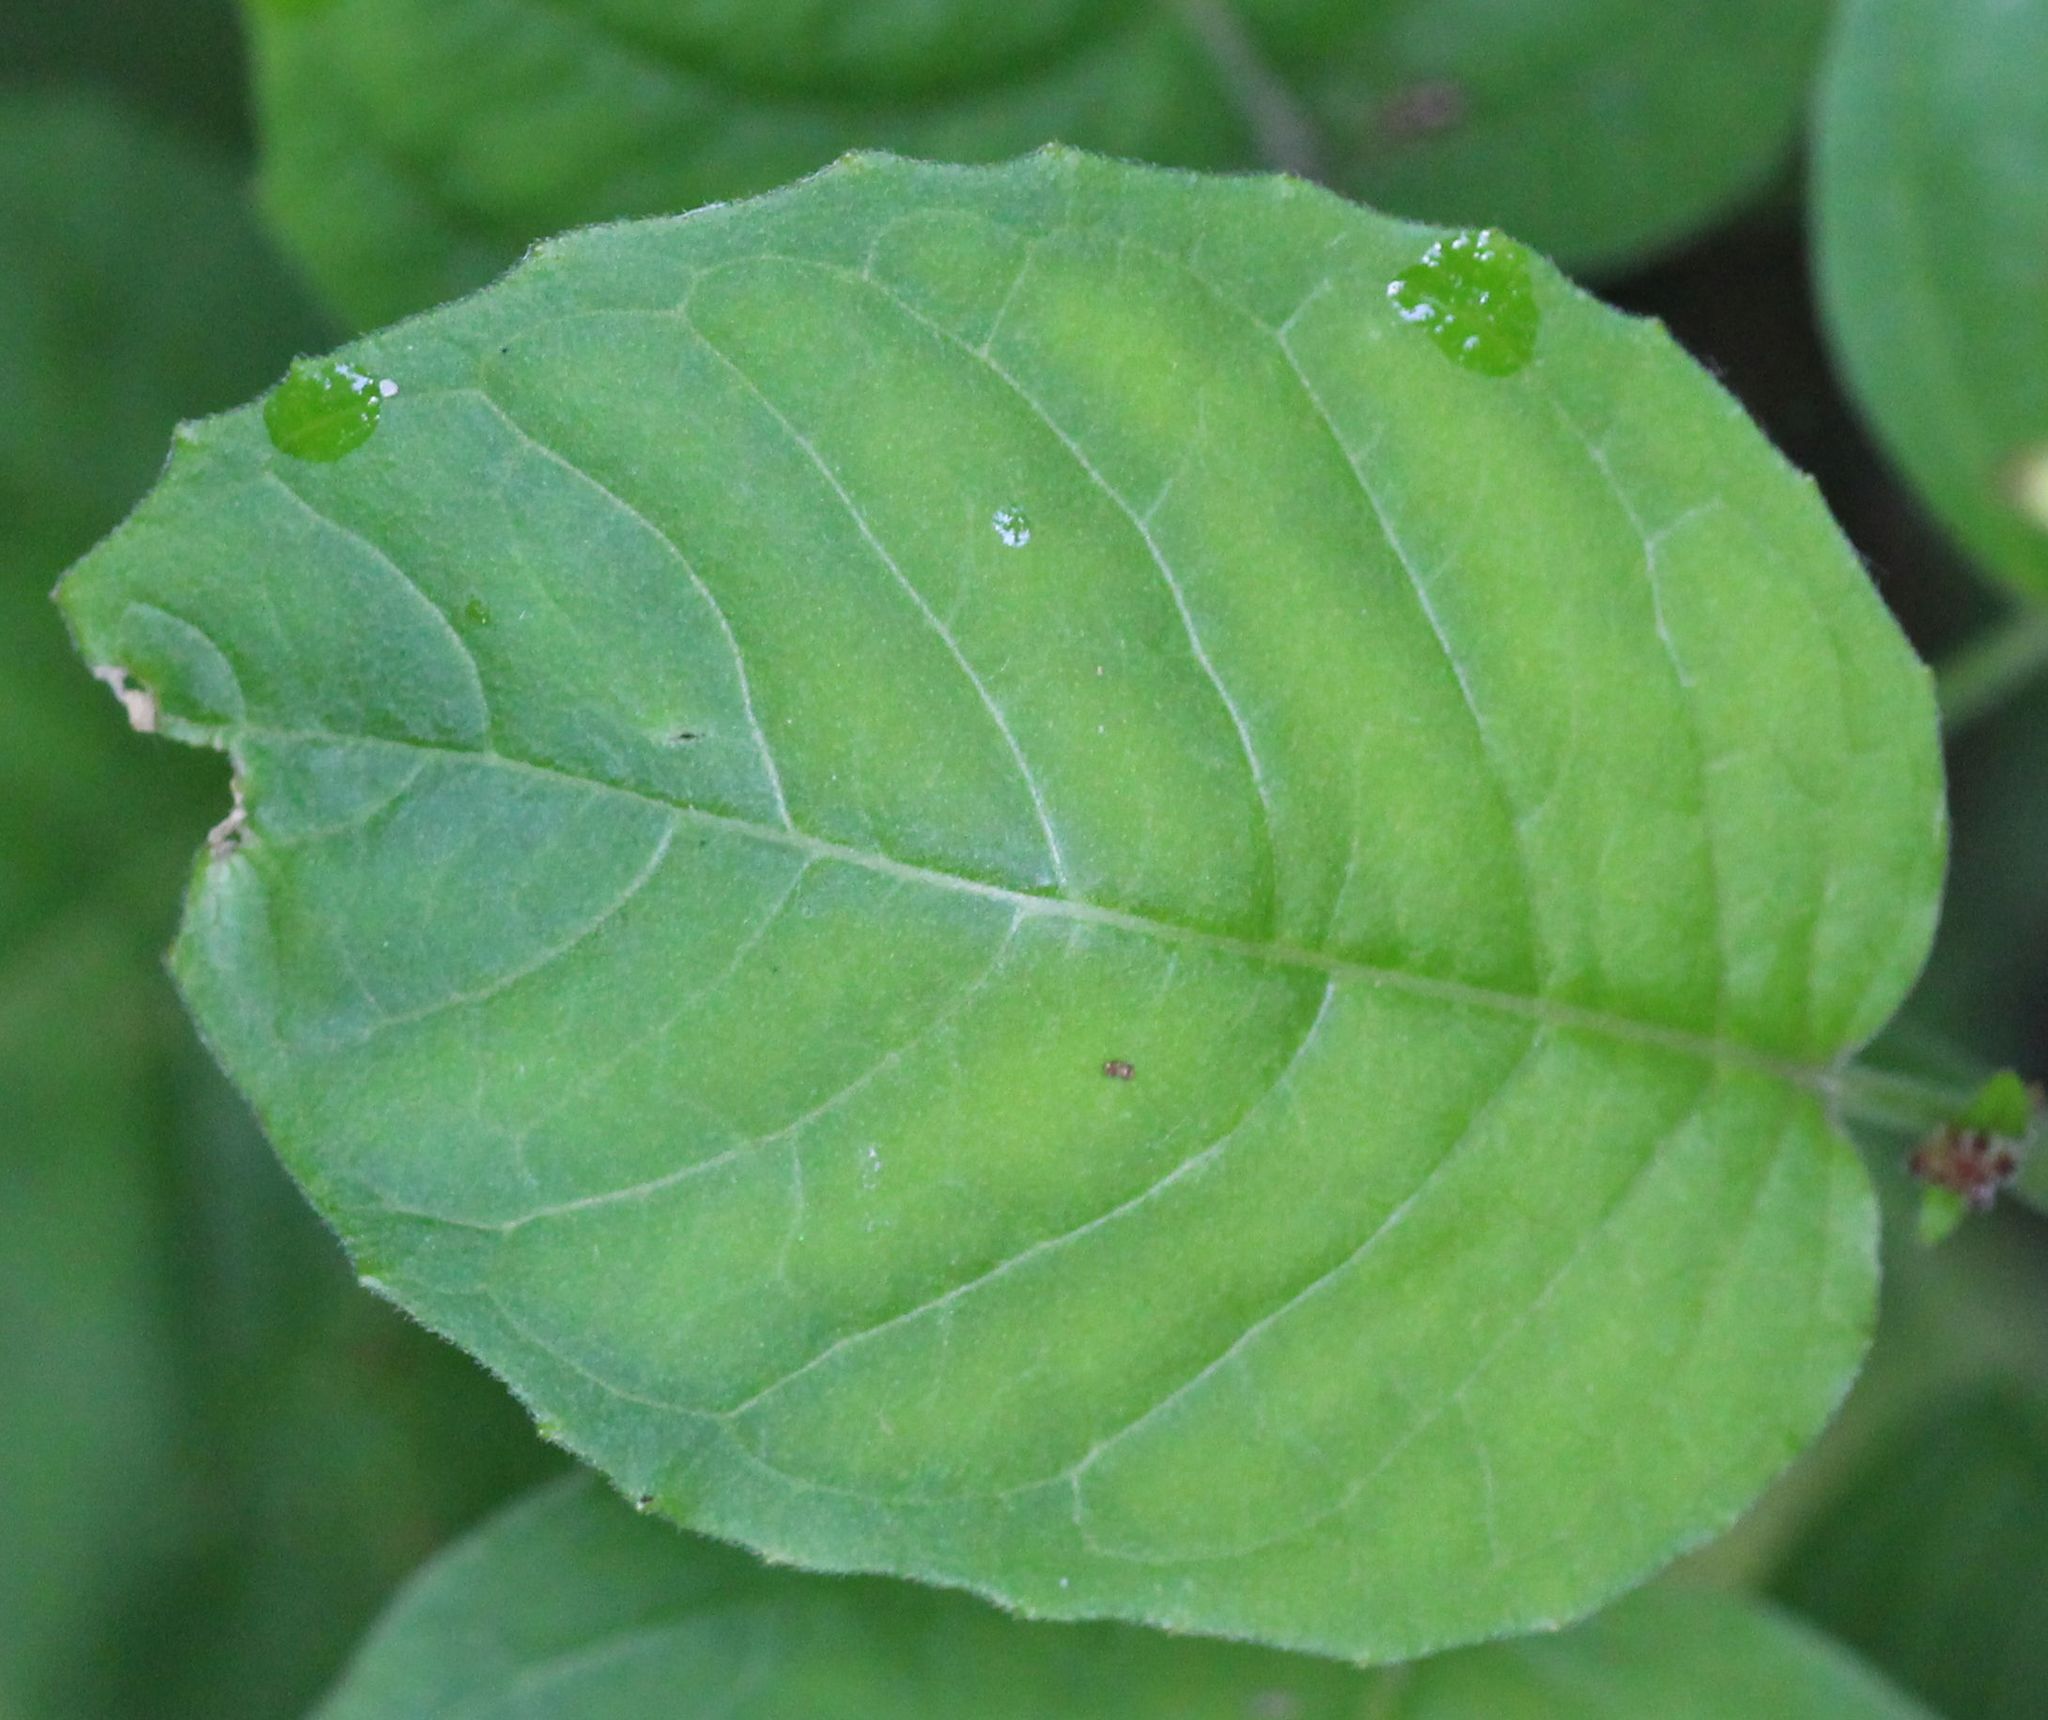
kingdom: Plantae
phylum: Tracheophyta
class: Magnoliopsida
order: Myrtales
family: Onagraceae
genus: Circaea
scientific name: Circaea lutetiana
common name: Enchanter's-nightshade
